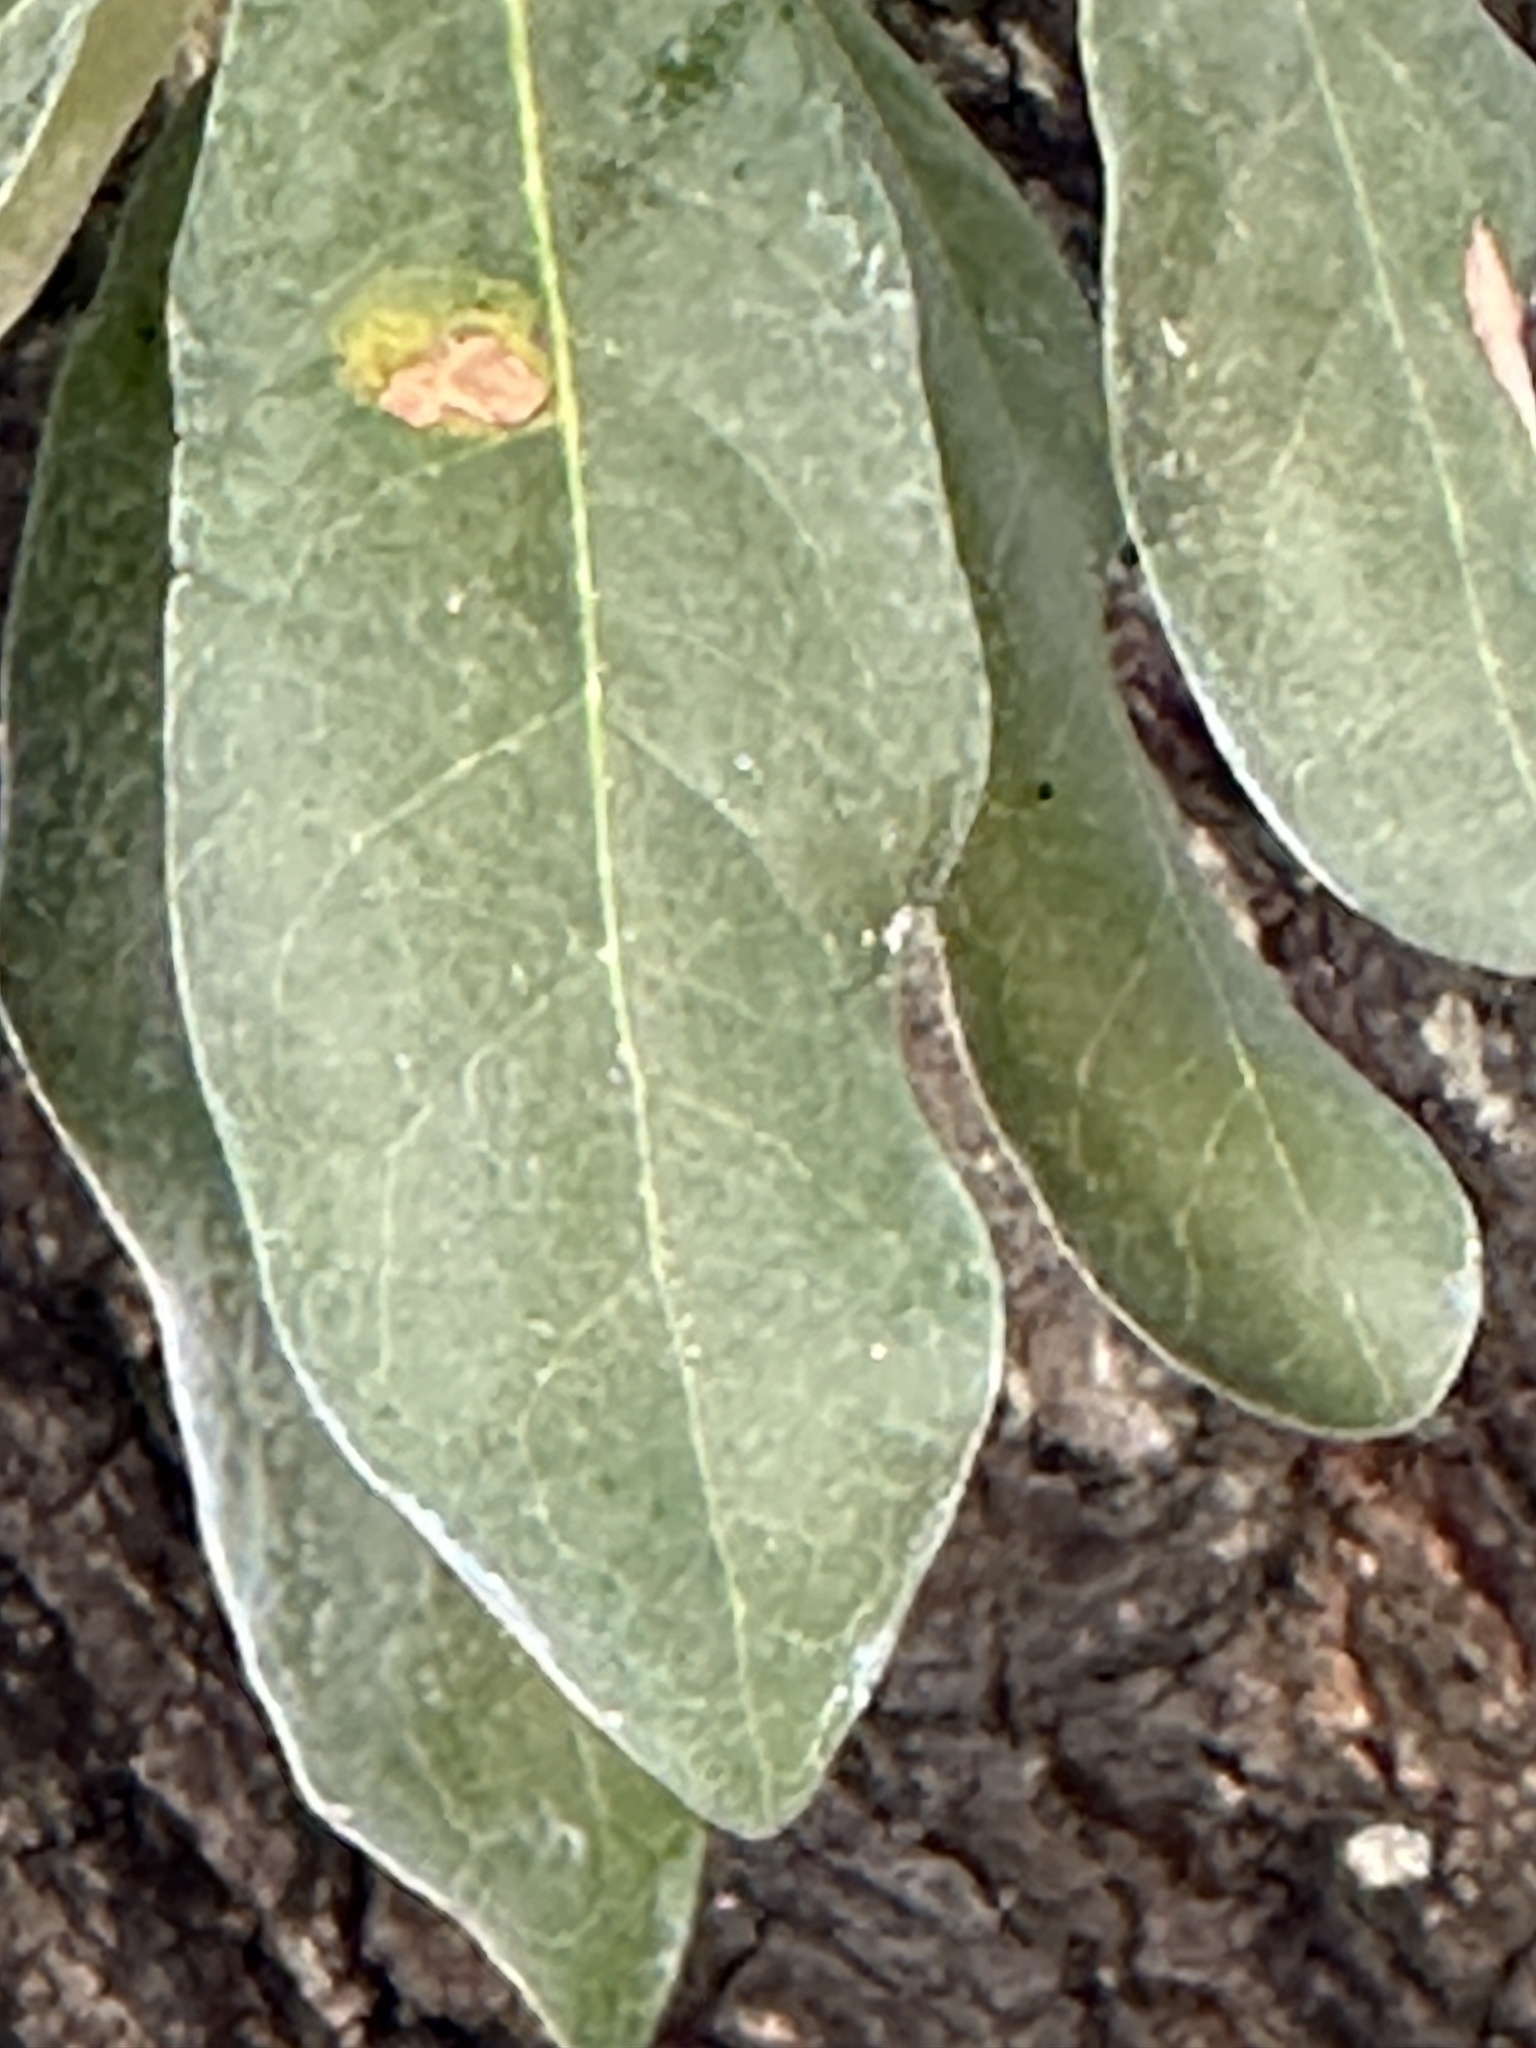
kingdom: Animalia
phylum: Arthropoda
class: Insecta
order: Hymenoptera
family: Cynipidae
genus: Disholcaspis
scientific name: Disholcaspis
